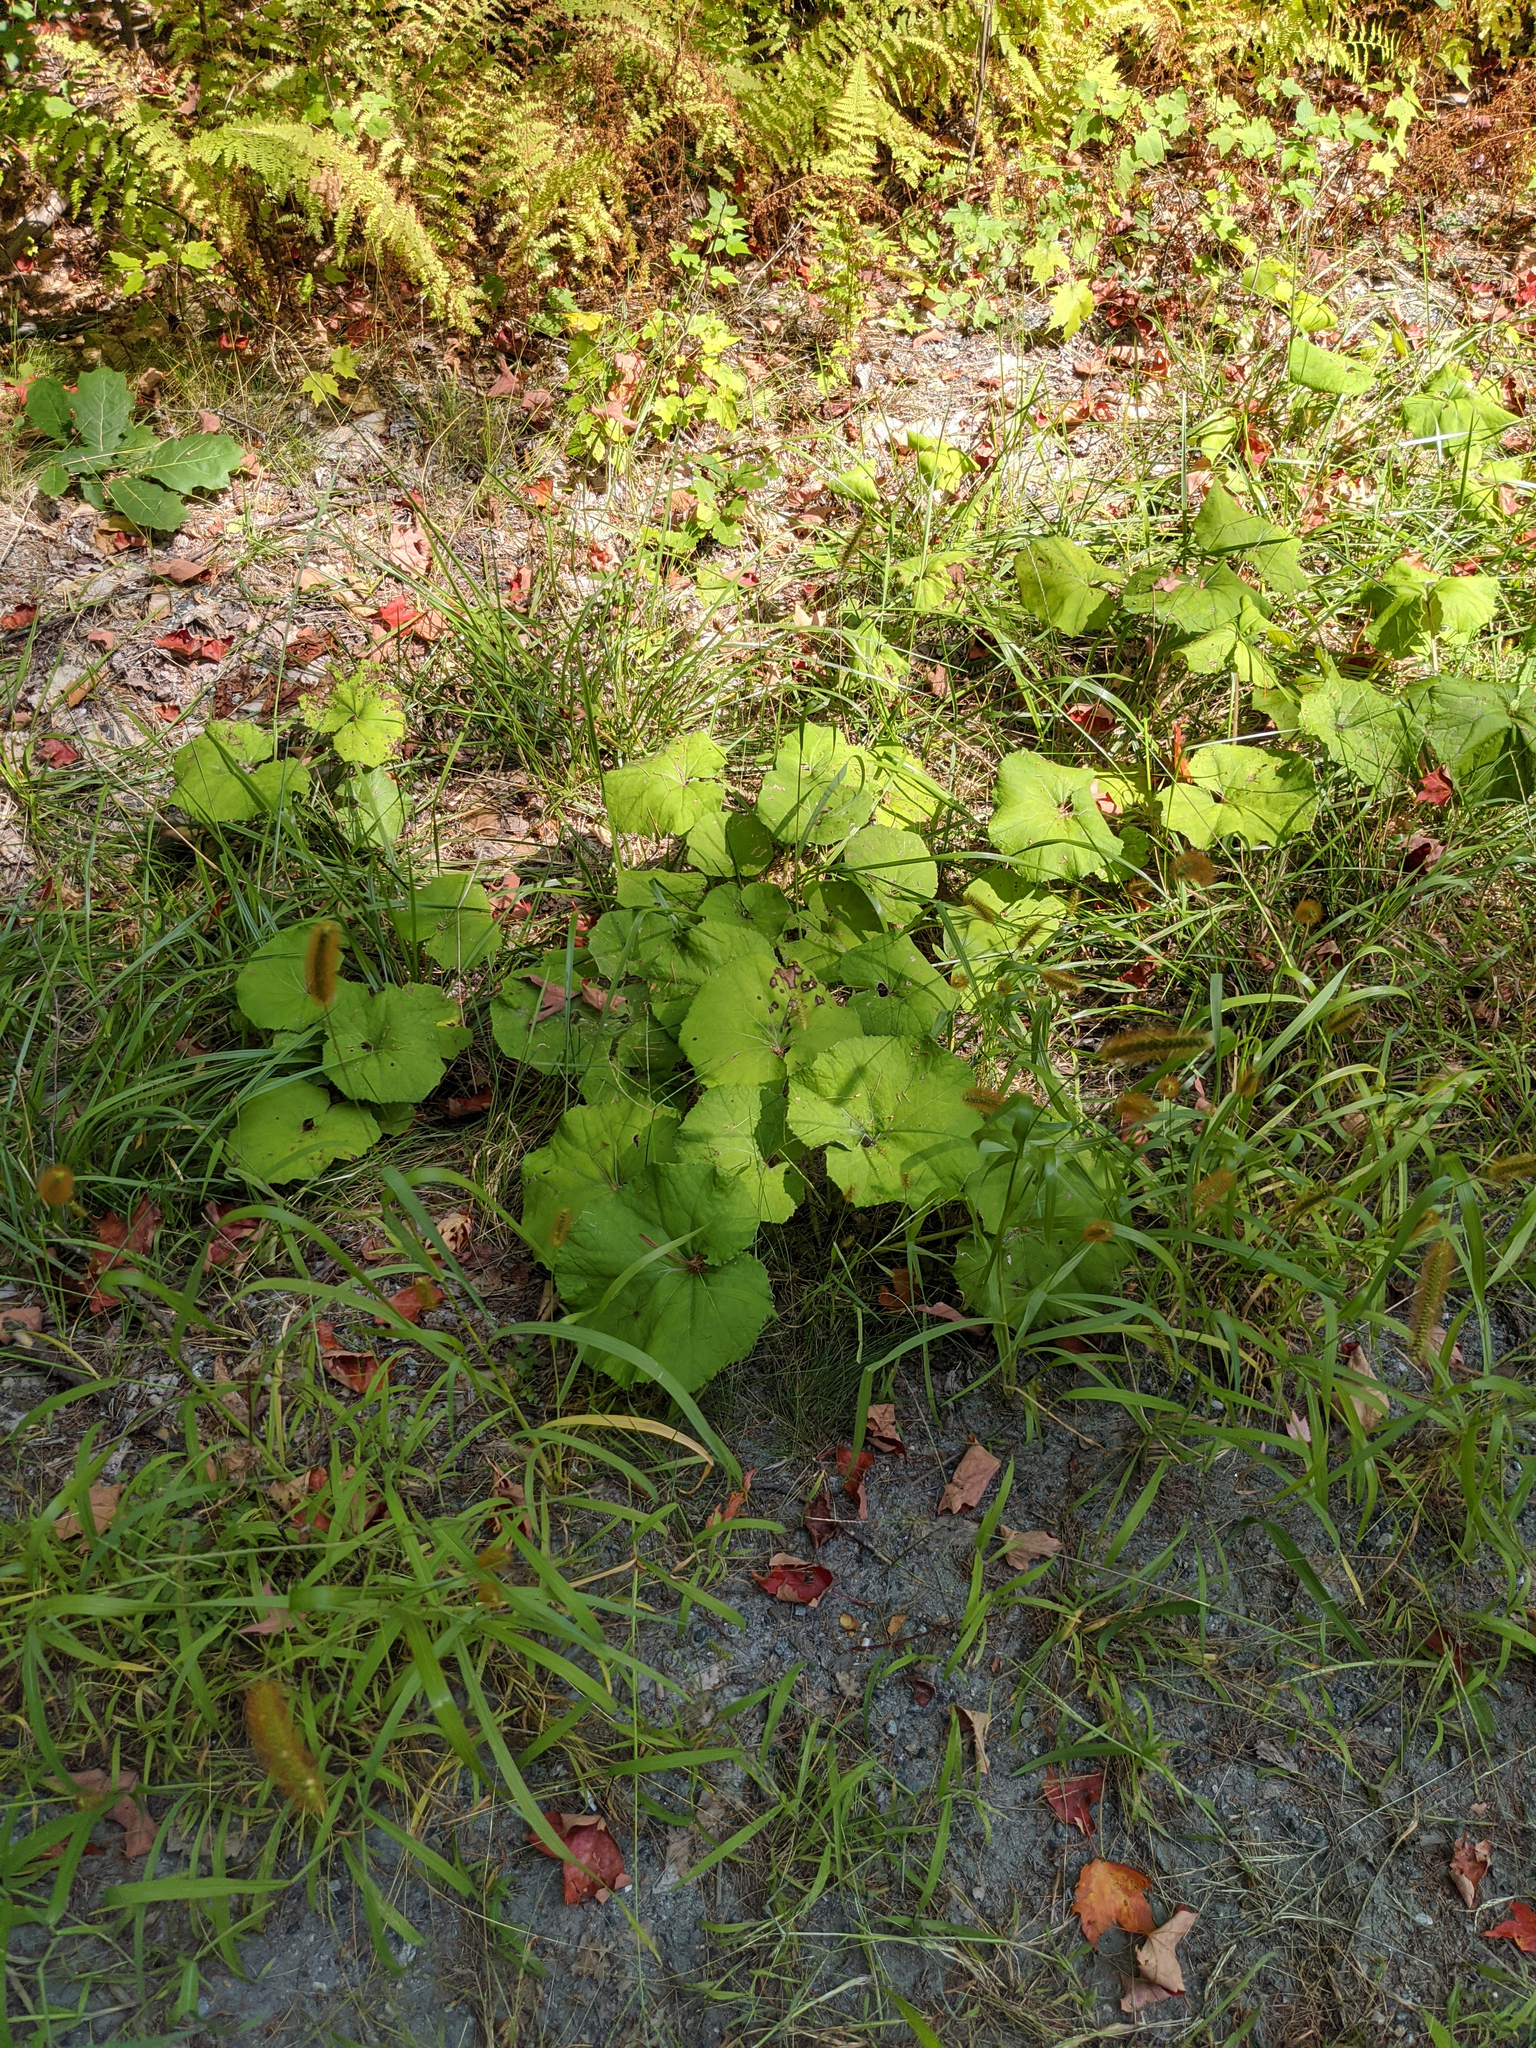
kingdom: Plantae
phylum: Tracheophyta
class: Magnoliopsida
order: Asterales
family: Asteraceae
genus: Tussilago
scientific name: Tussilago farfara
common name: Coltsfoot
